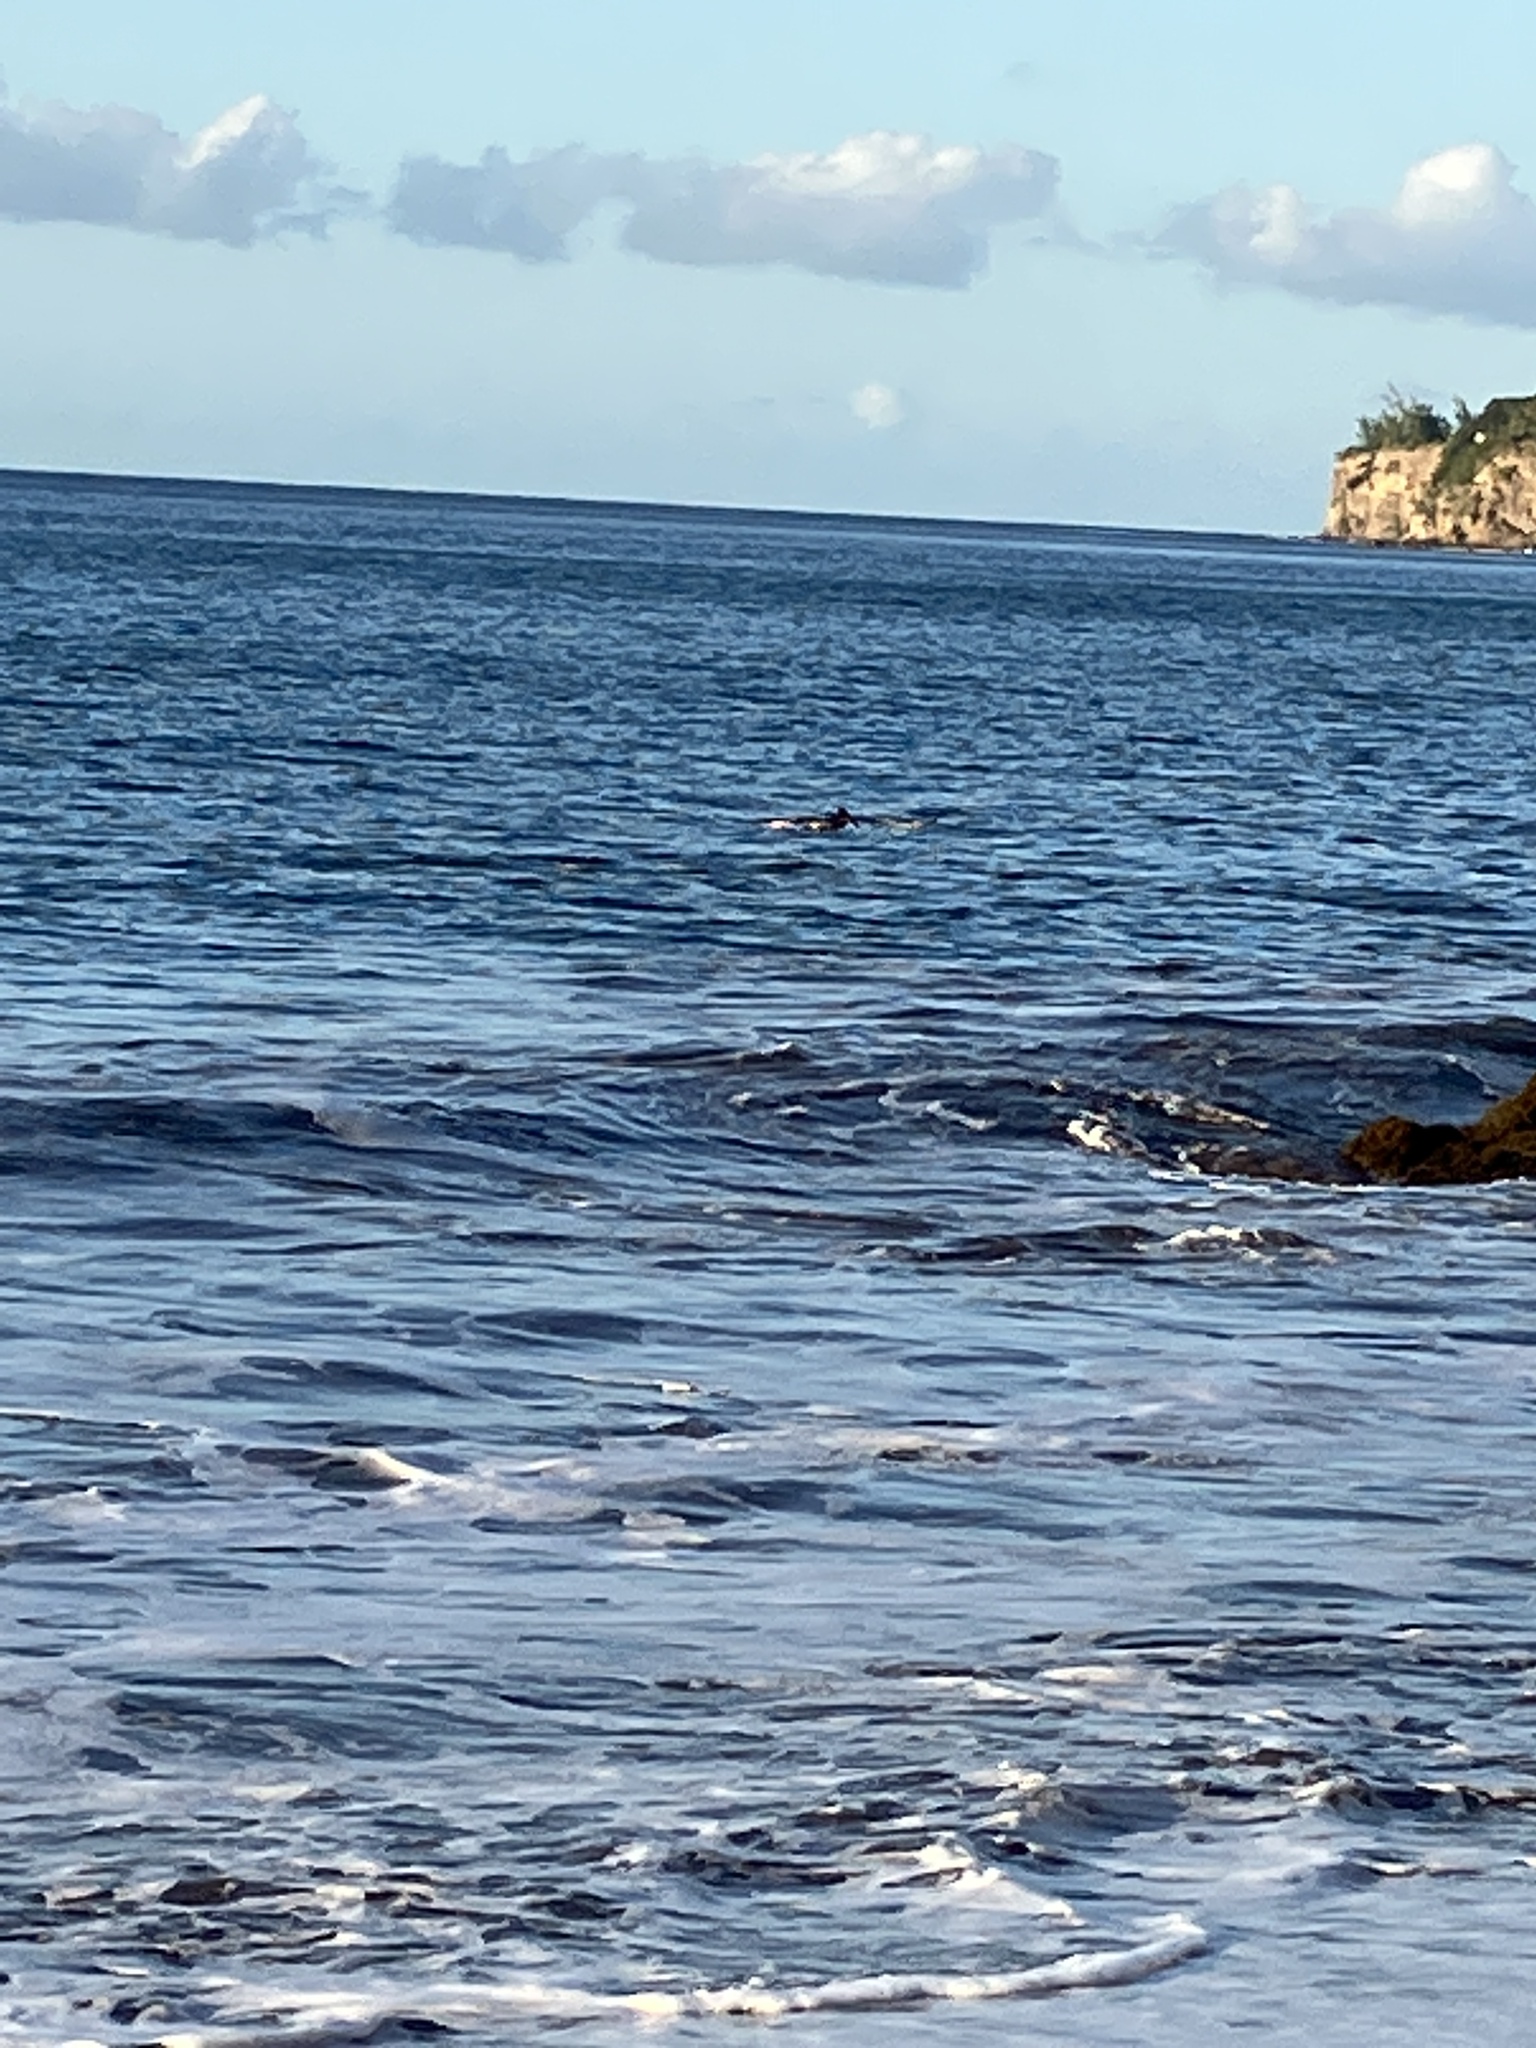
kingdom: Animalia
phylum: Chordata
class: Aves
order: Pelecaniformes
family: Pelecanidae
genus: Pelecanus
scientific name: Pelecanus occidentalis
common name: Brown pelican
